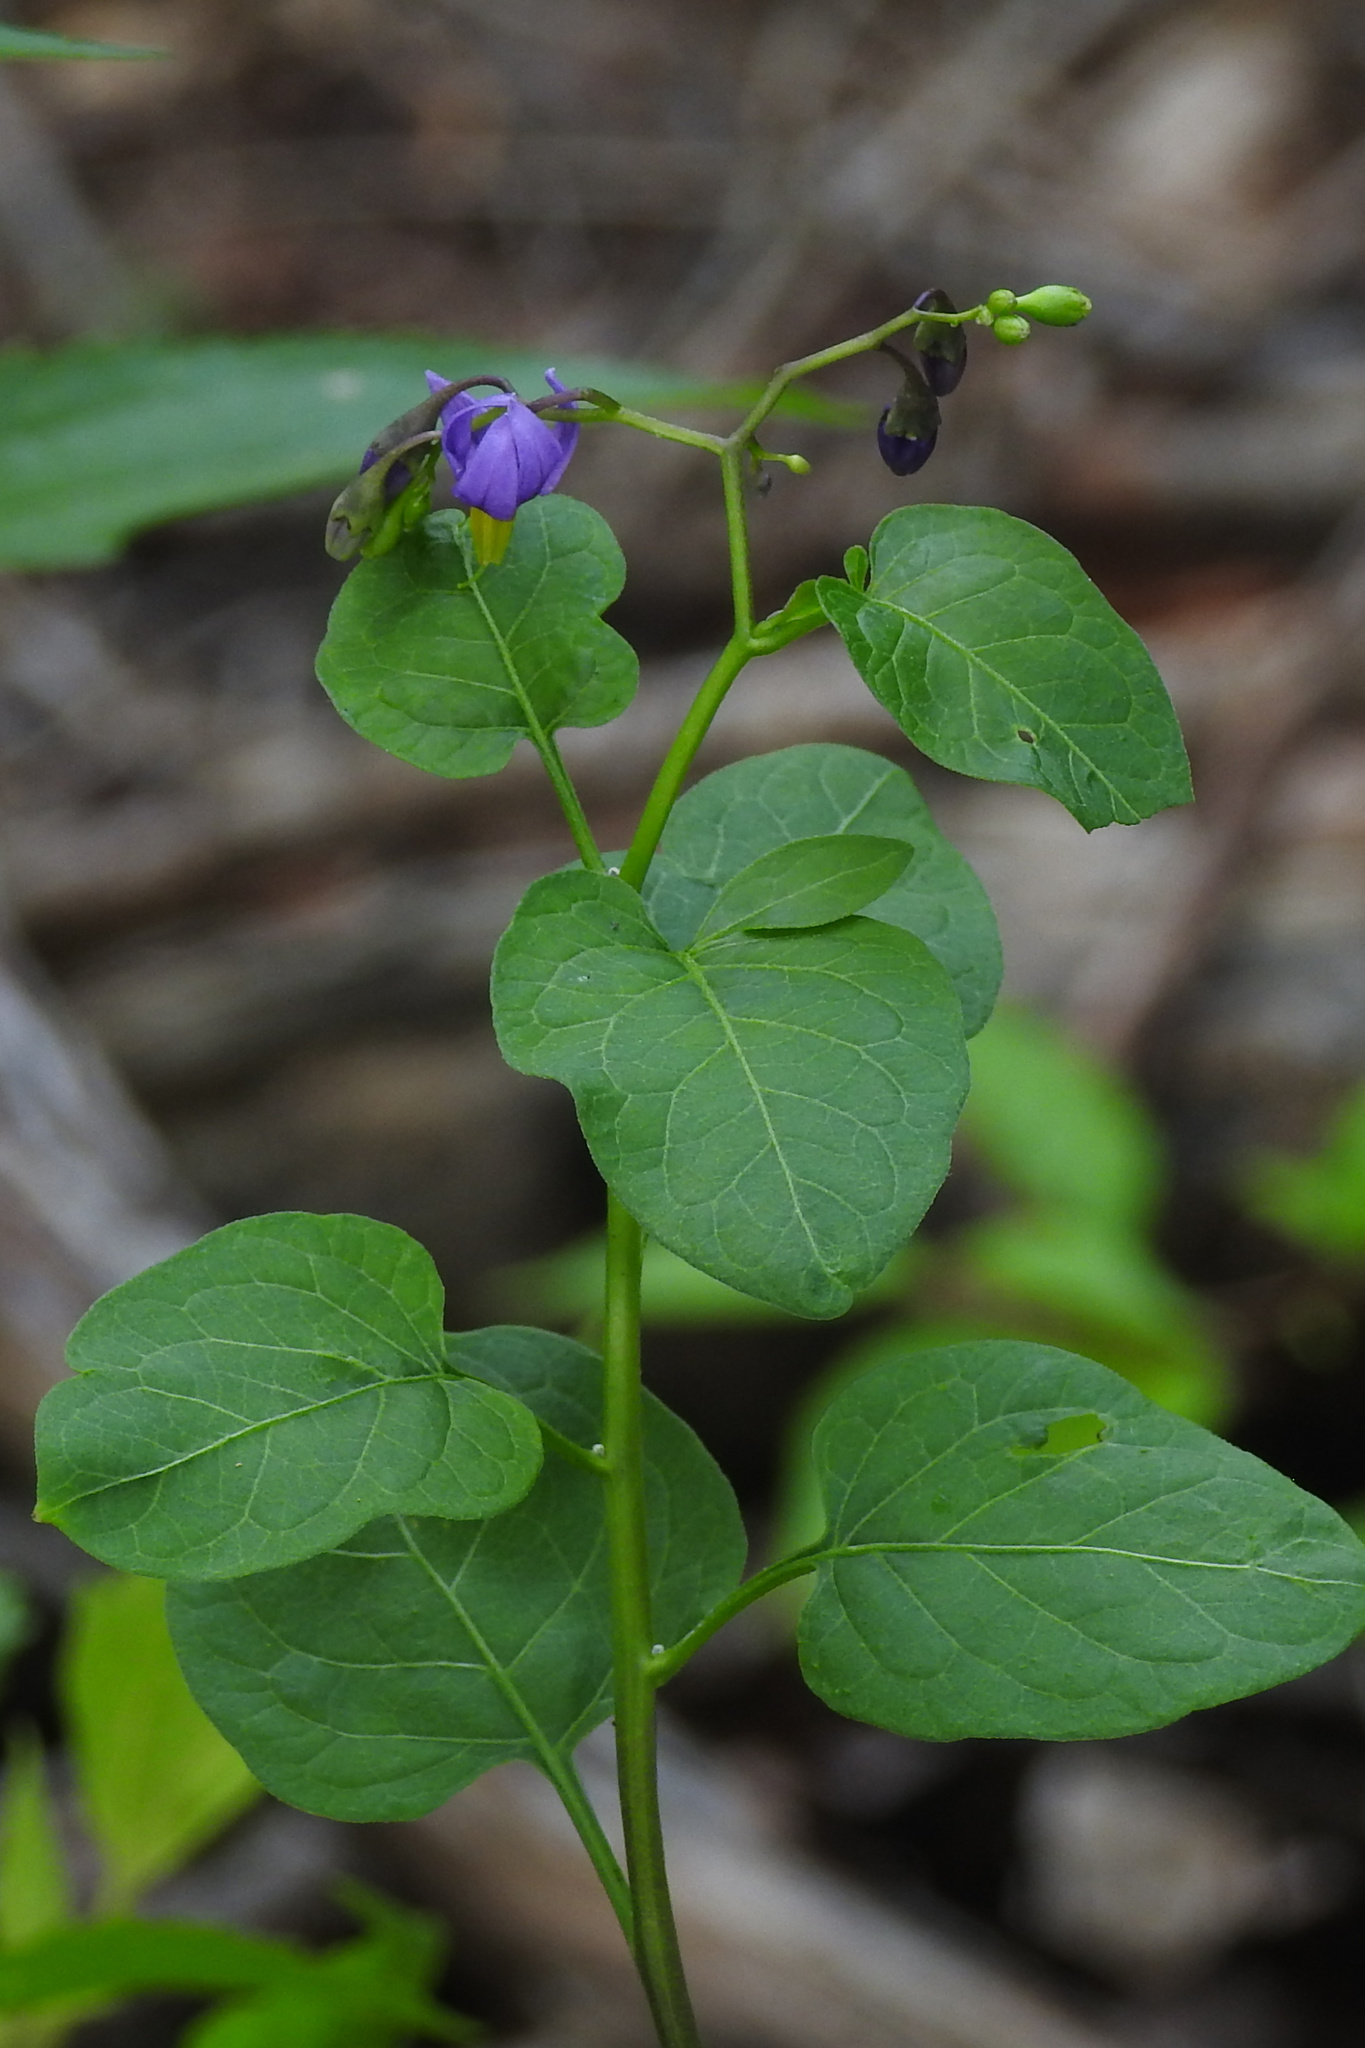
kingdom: Plantae
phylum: Tracheophyta
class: Magnoliopsida
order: Solanales
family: Solanaceae
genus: Solanum
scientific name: Solanum dulcamara
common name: Climbing nightshade
